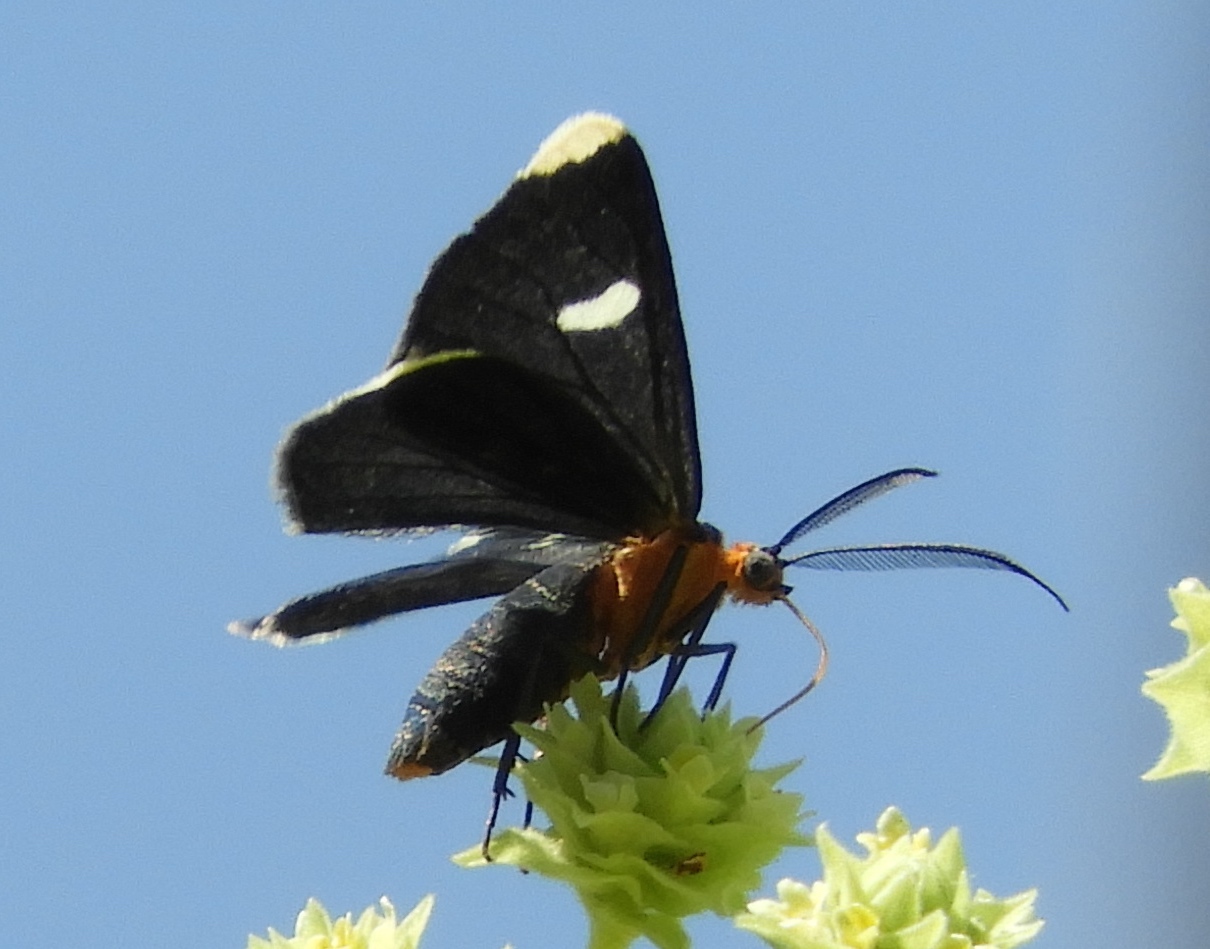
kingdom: Animalia
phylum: Arthropoda
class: Insecta
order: Lepidoptera
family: Geometridae
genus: Melanchroia
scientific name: Melanchroia vazquezae
